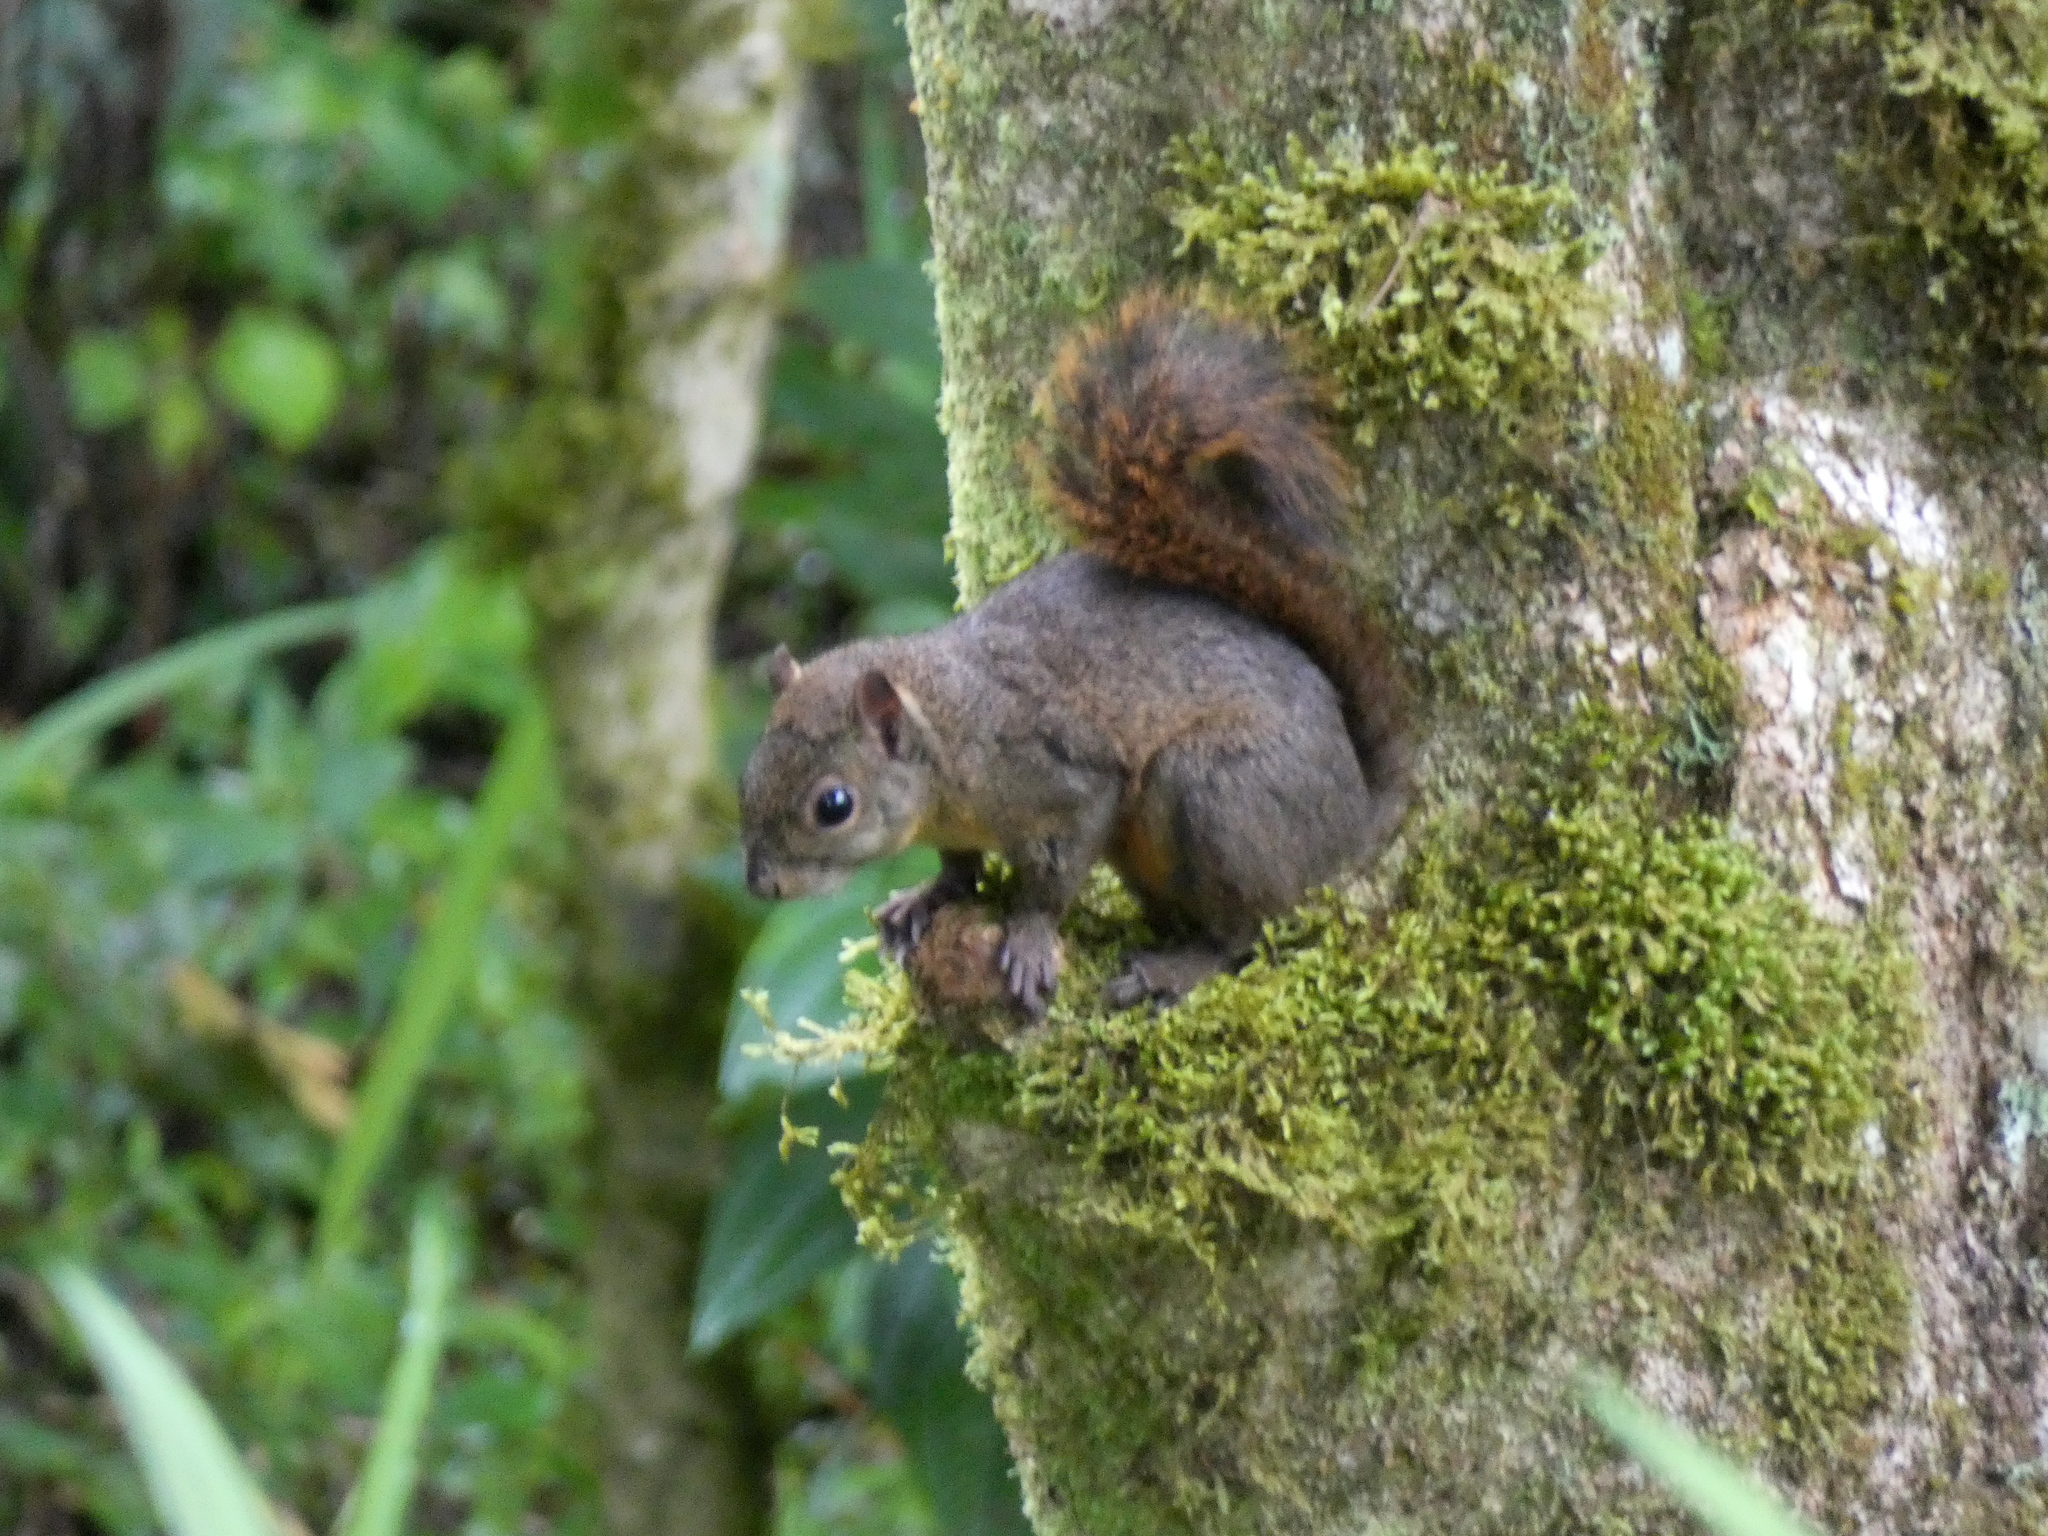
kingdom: Animalia
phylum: Chordata
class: Mammalia
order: Rodentia
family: Sciuridae
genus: Sciurus
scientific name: Sciurus granatensis
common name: Red-tailed squirrel
